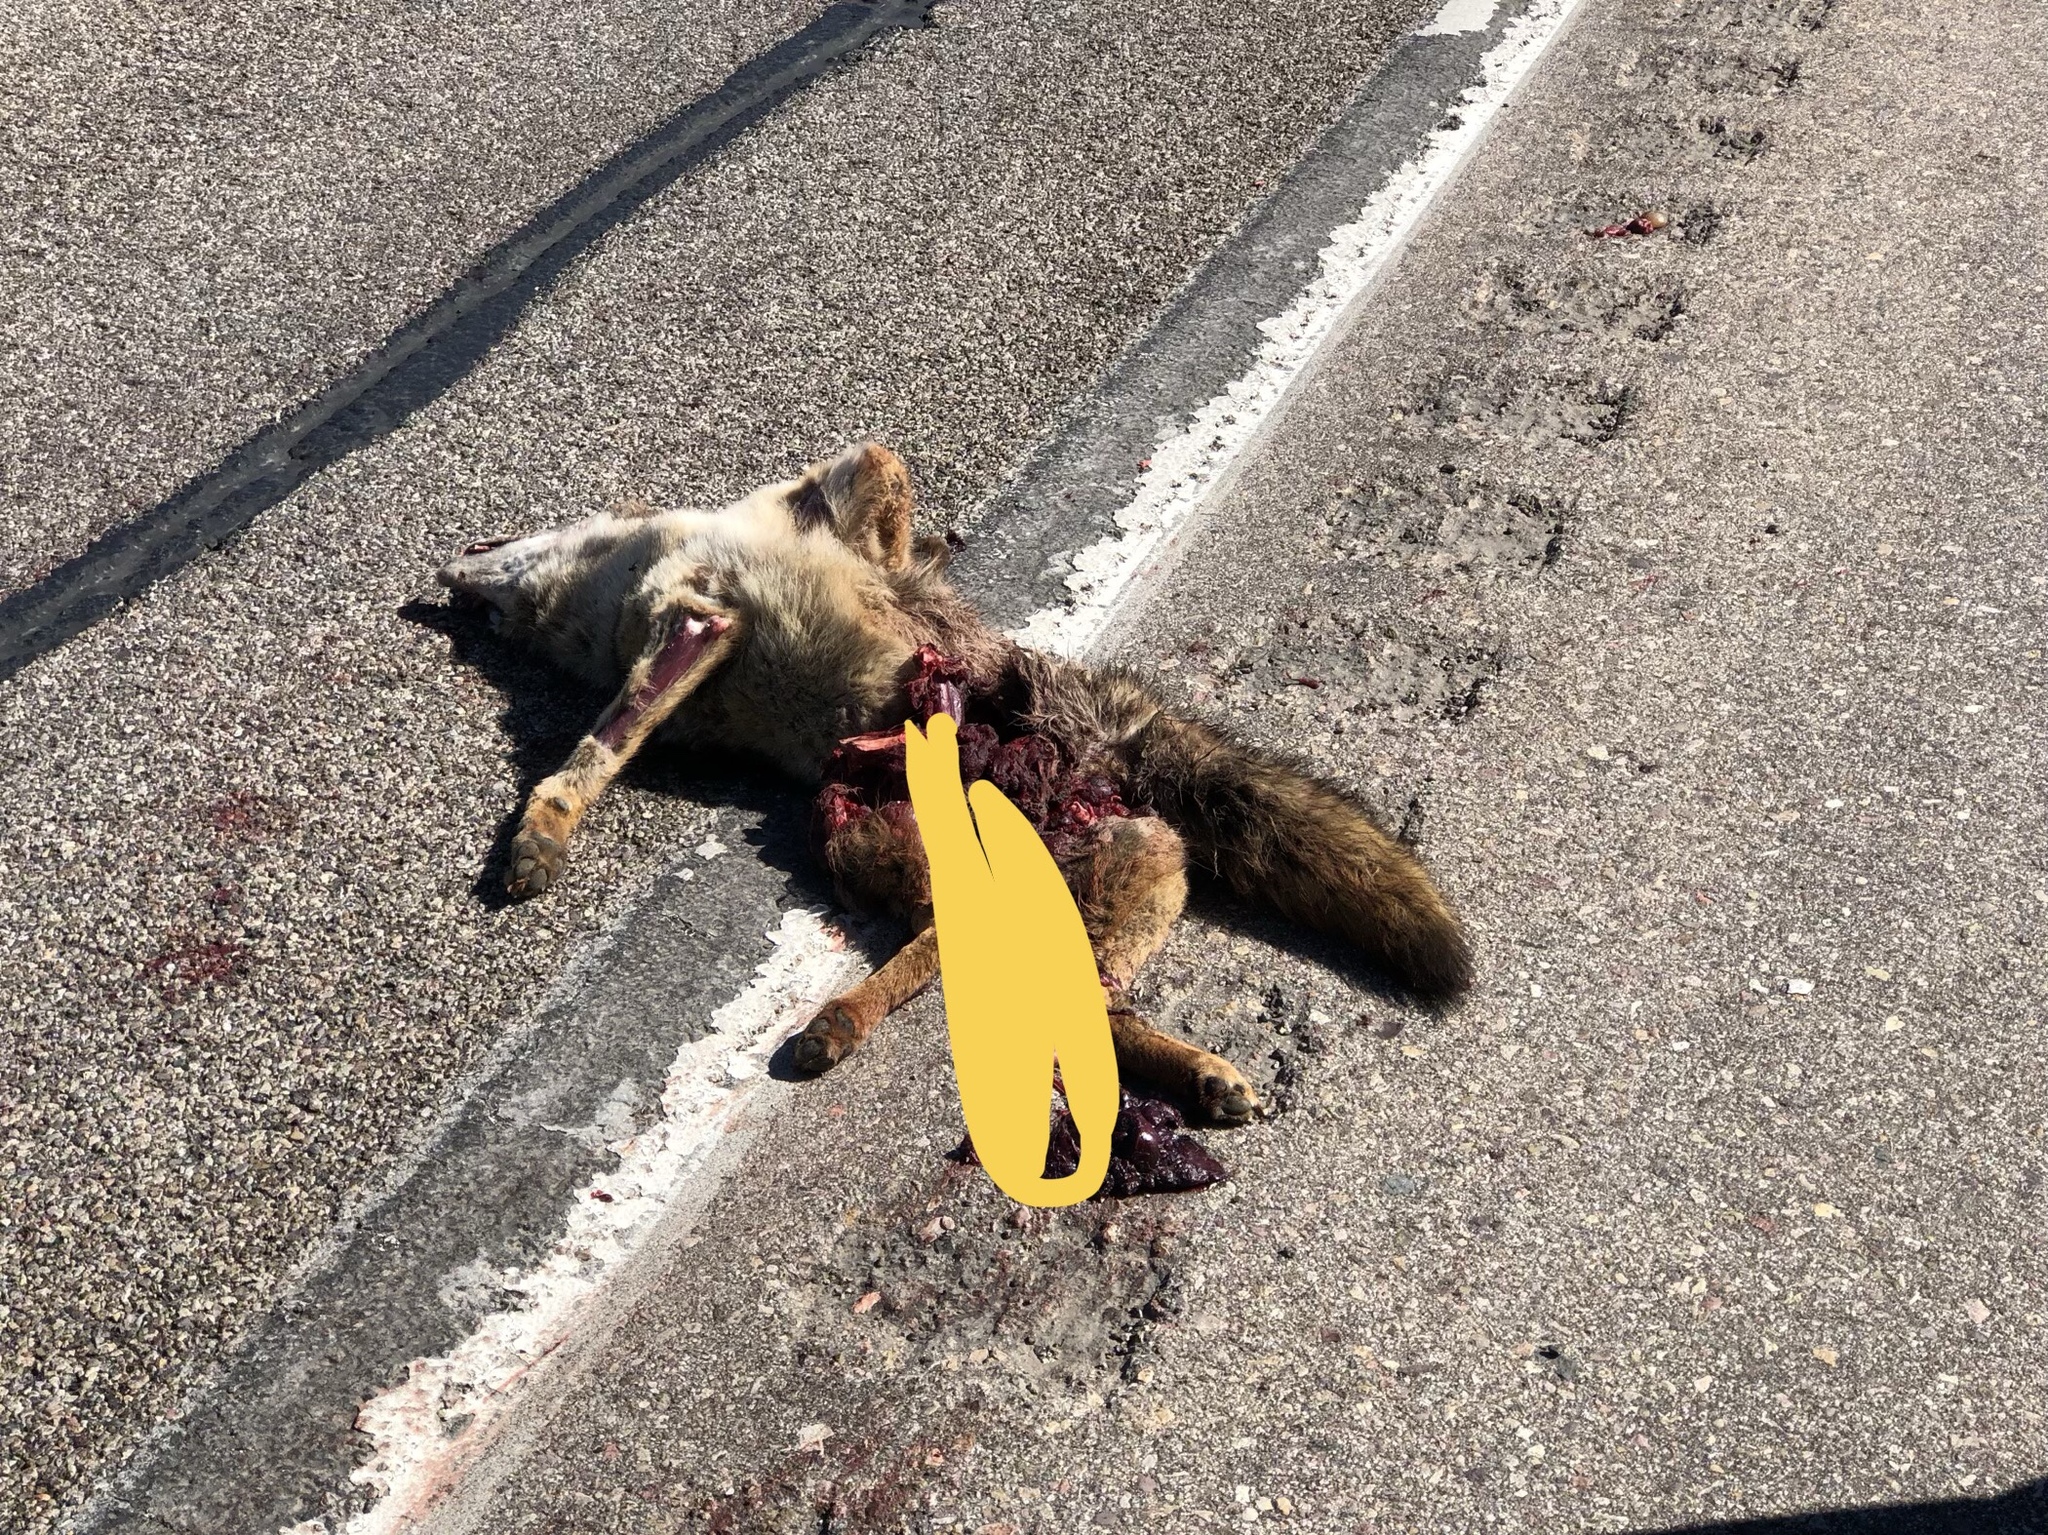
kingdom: Animalia
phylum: Chordata
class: Mammalia
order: Carnivora
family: Canidae
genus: Canis
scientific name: Canis latrans
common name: Coyote
